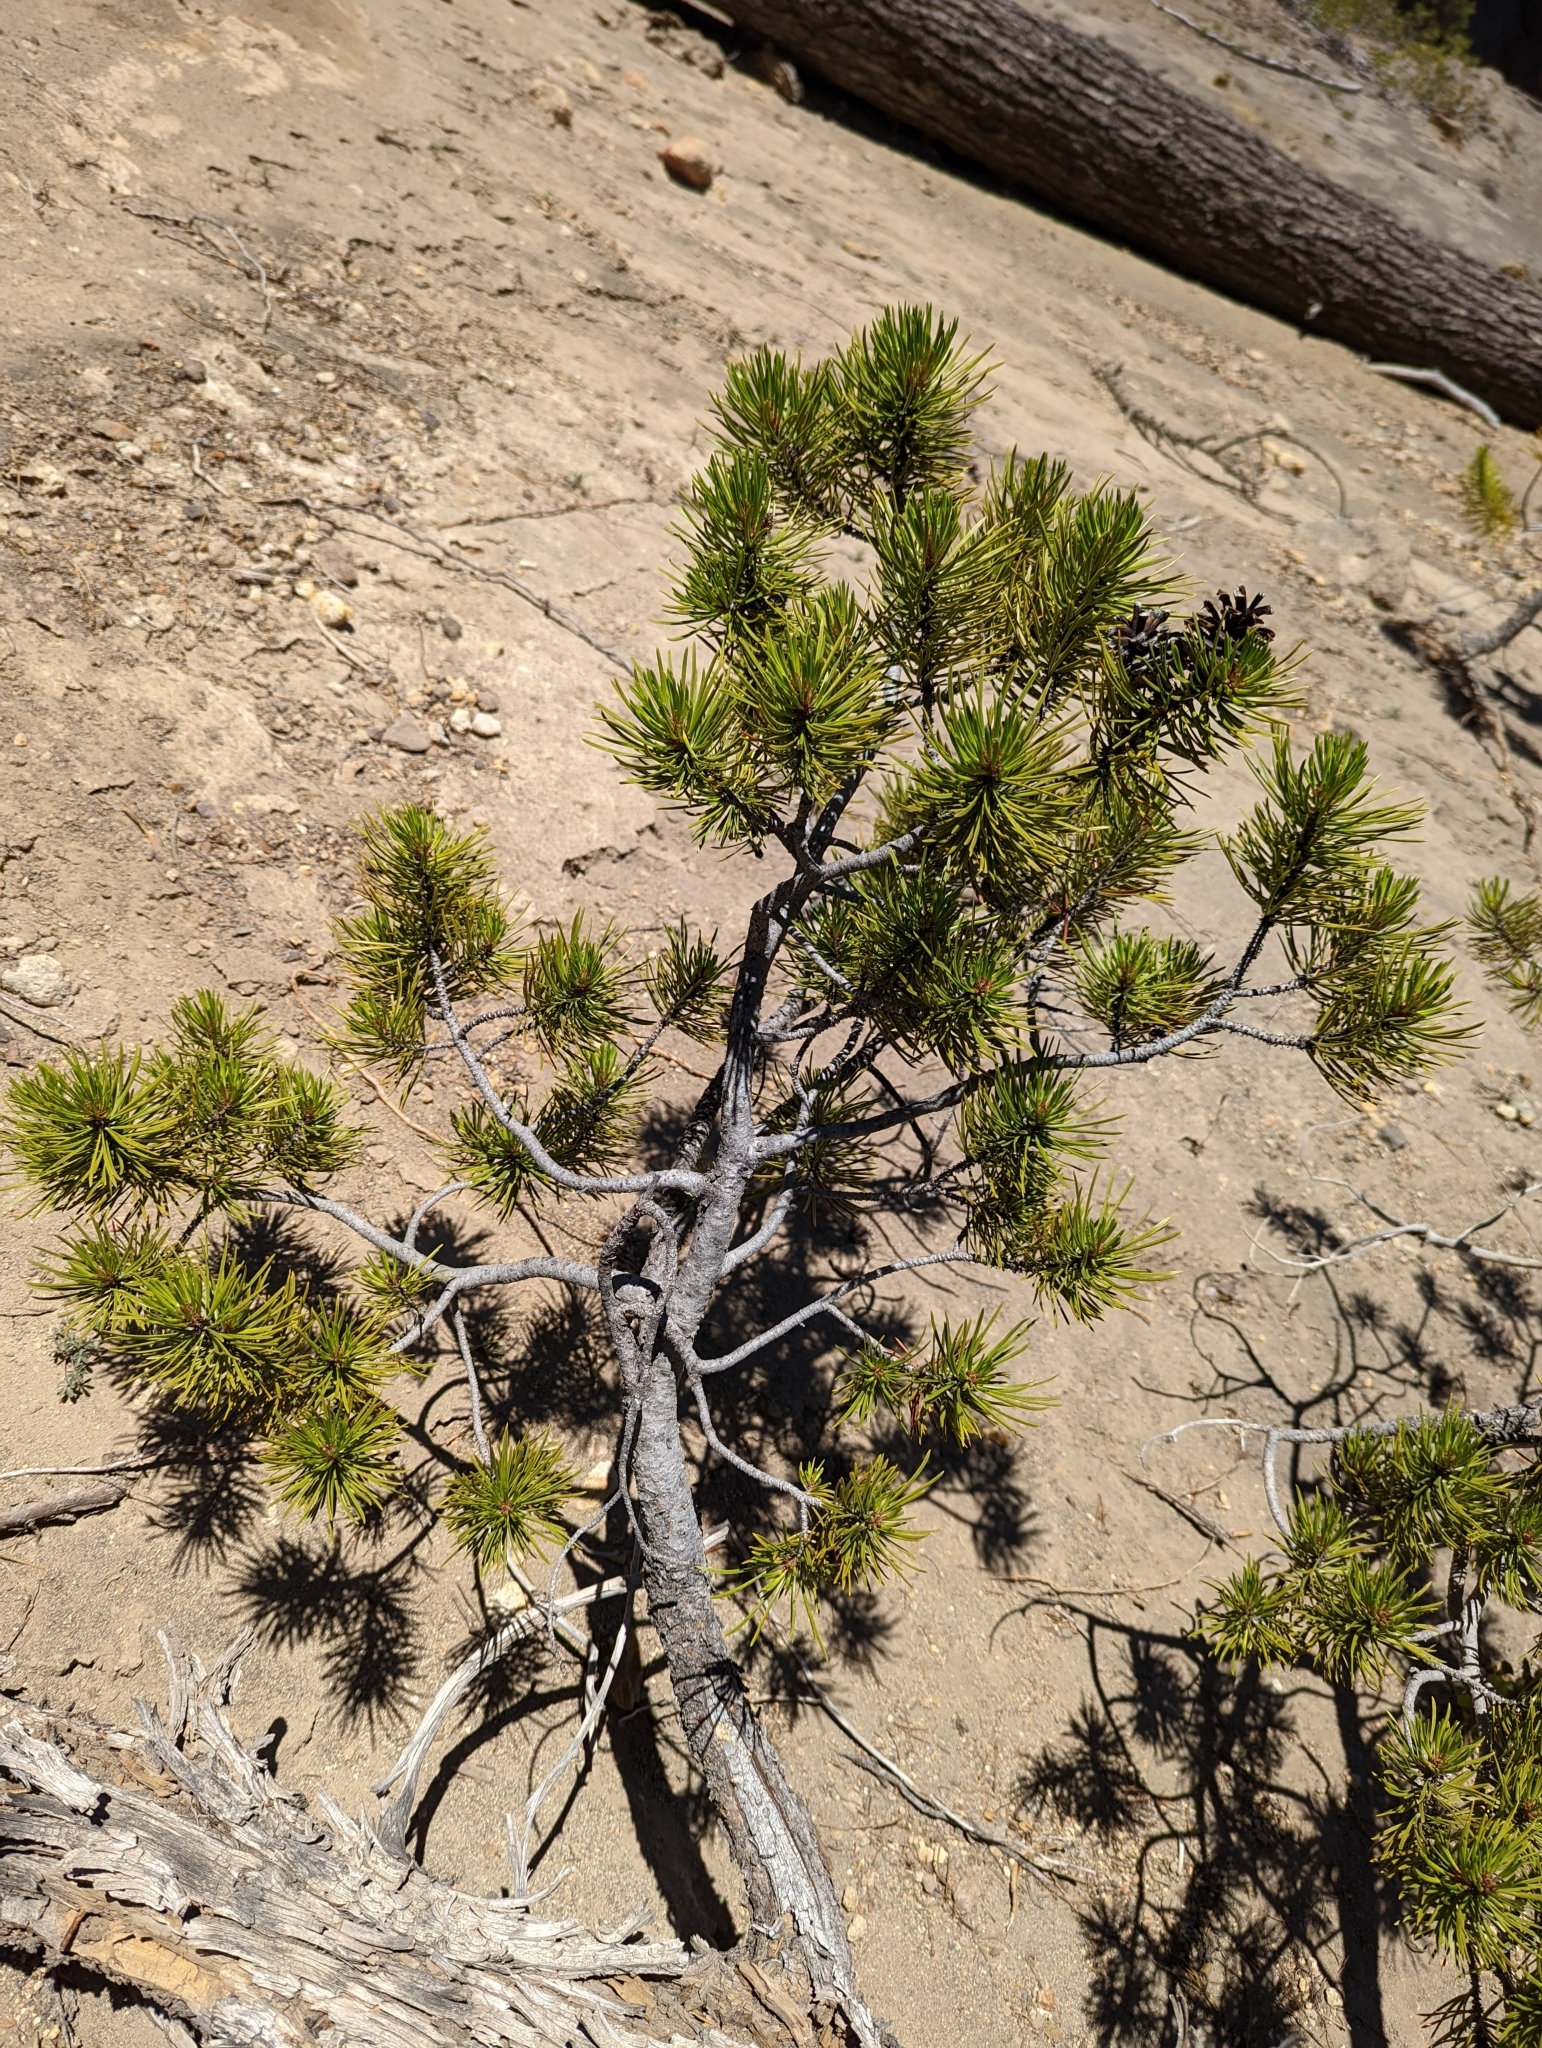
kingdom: Plantae
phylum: Tracheophyta
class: Pinopsida
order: Pinales
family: Pinaceae
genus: Pinus
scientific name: Pinus contorta
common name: Lodgepole pine
